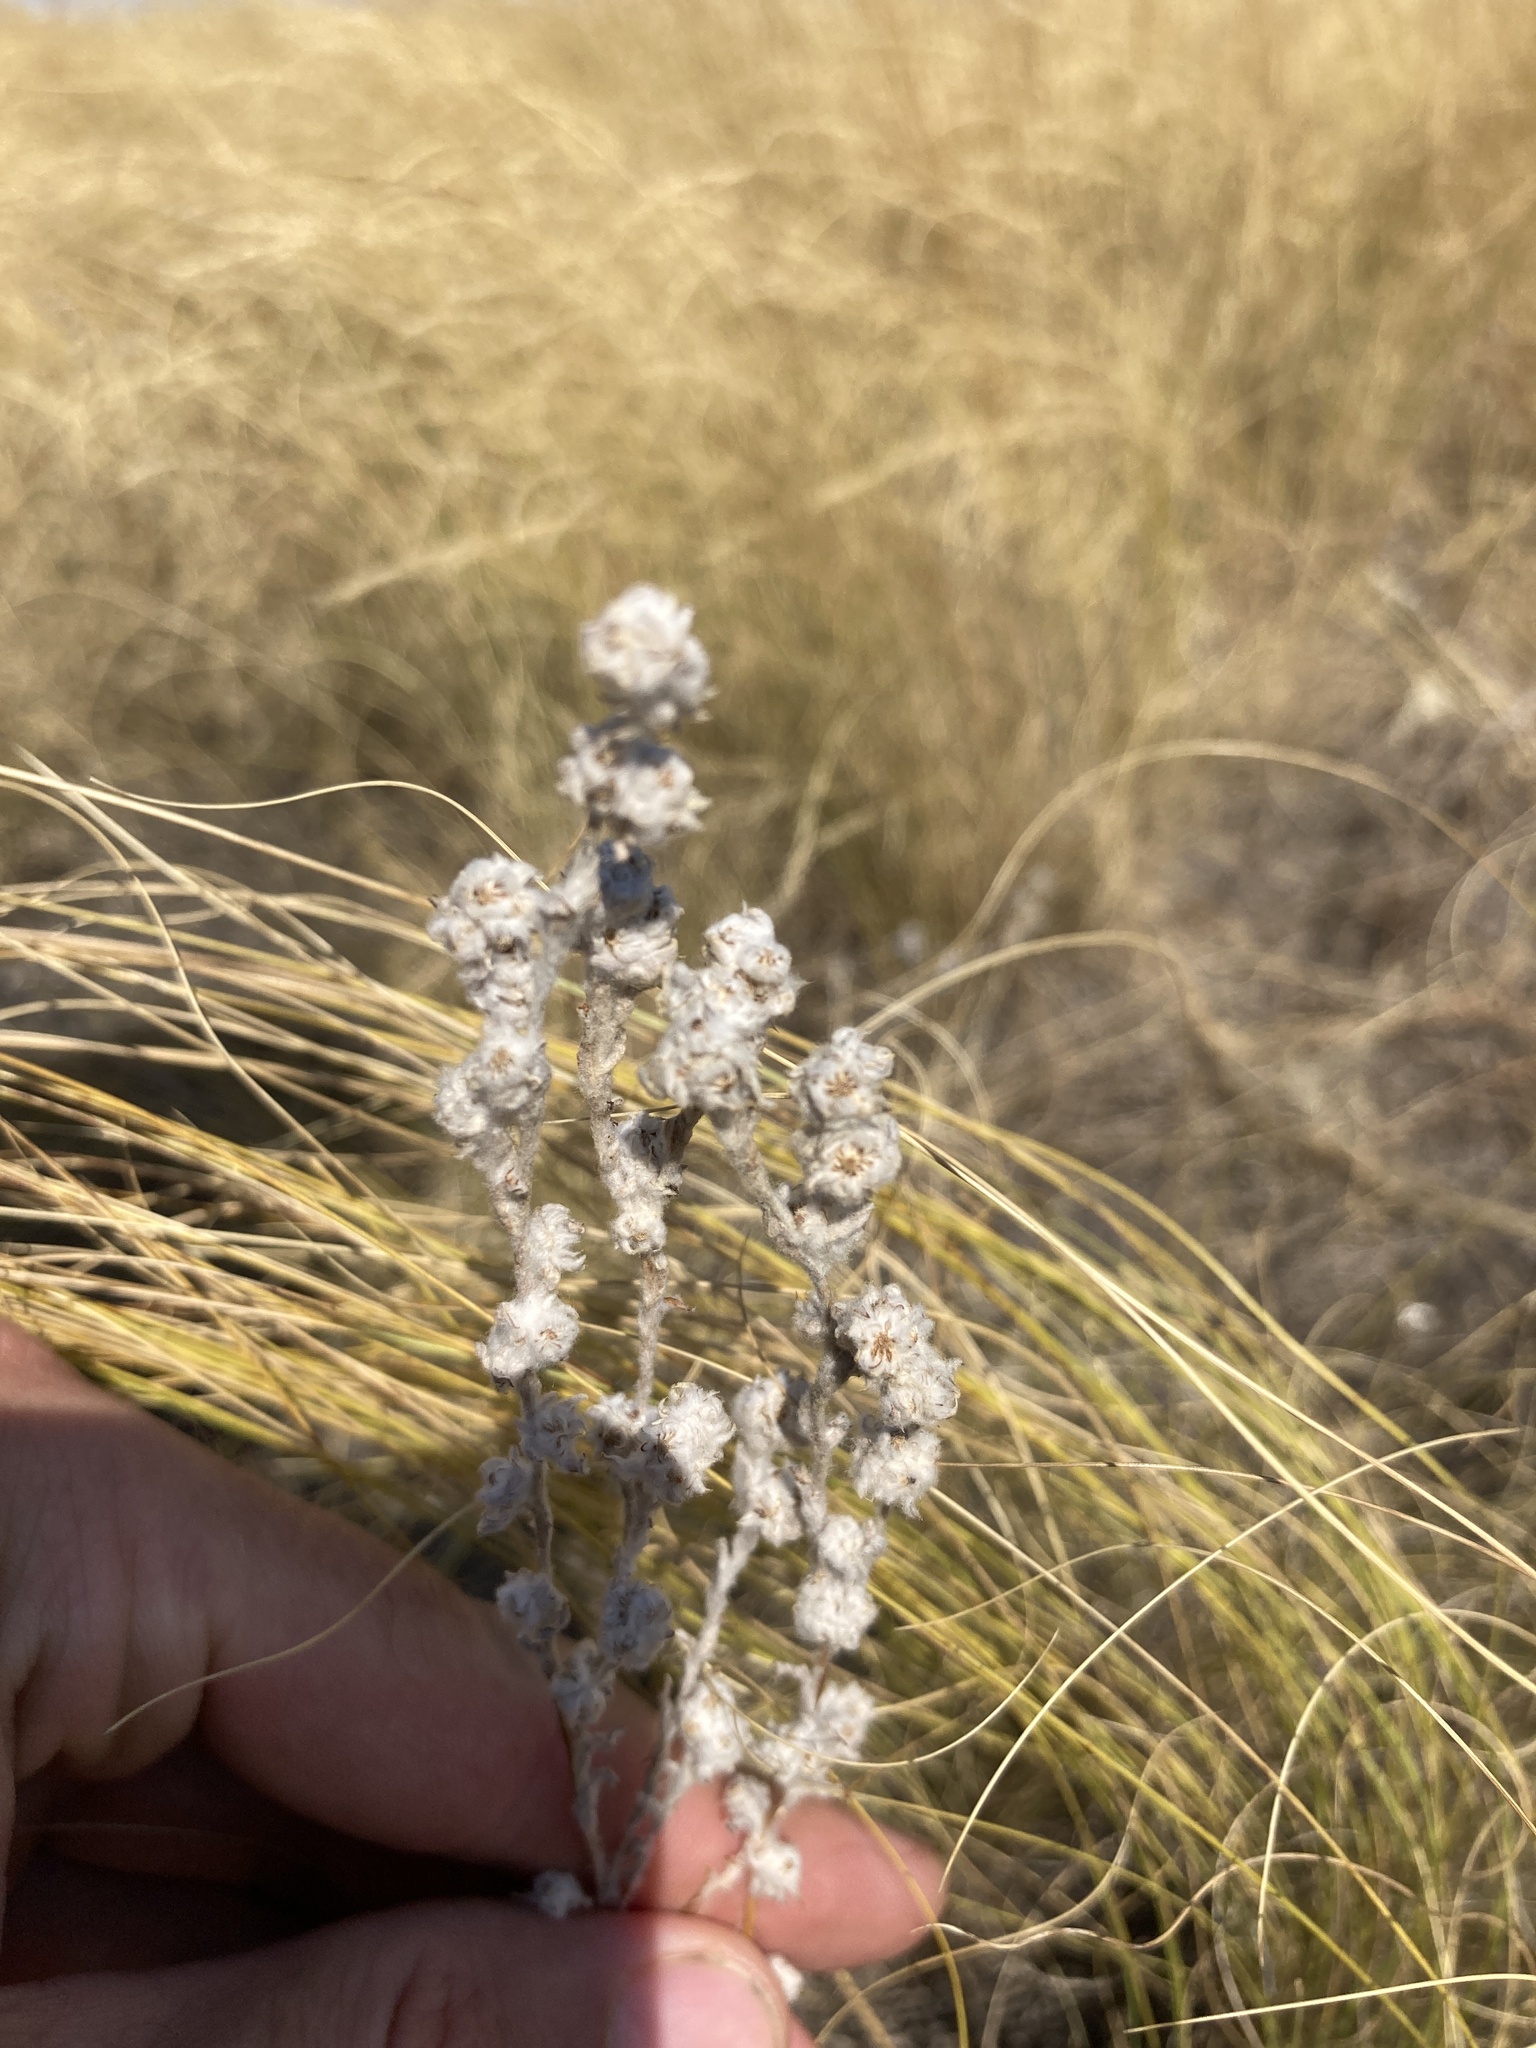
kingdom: Plantae
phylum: Tracheophyta
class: Magnoliopsida
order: Asterales
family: Asteraceae
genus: Filago
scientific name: Filago arvensis
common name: Field cudweed
